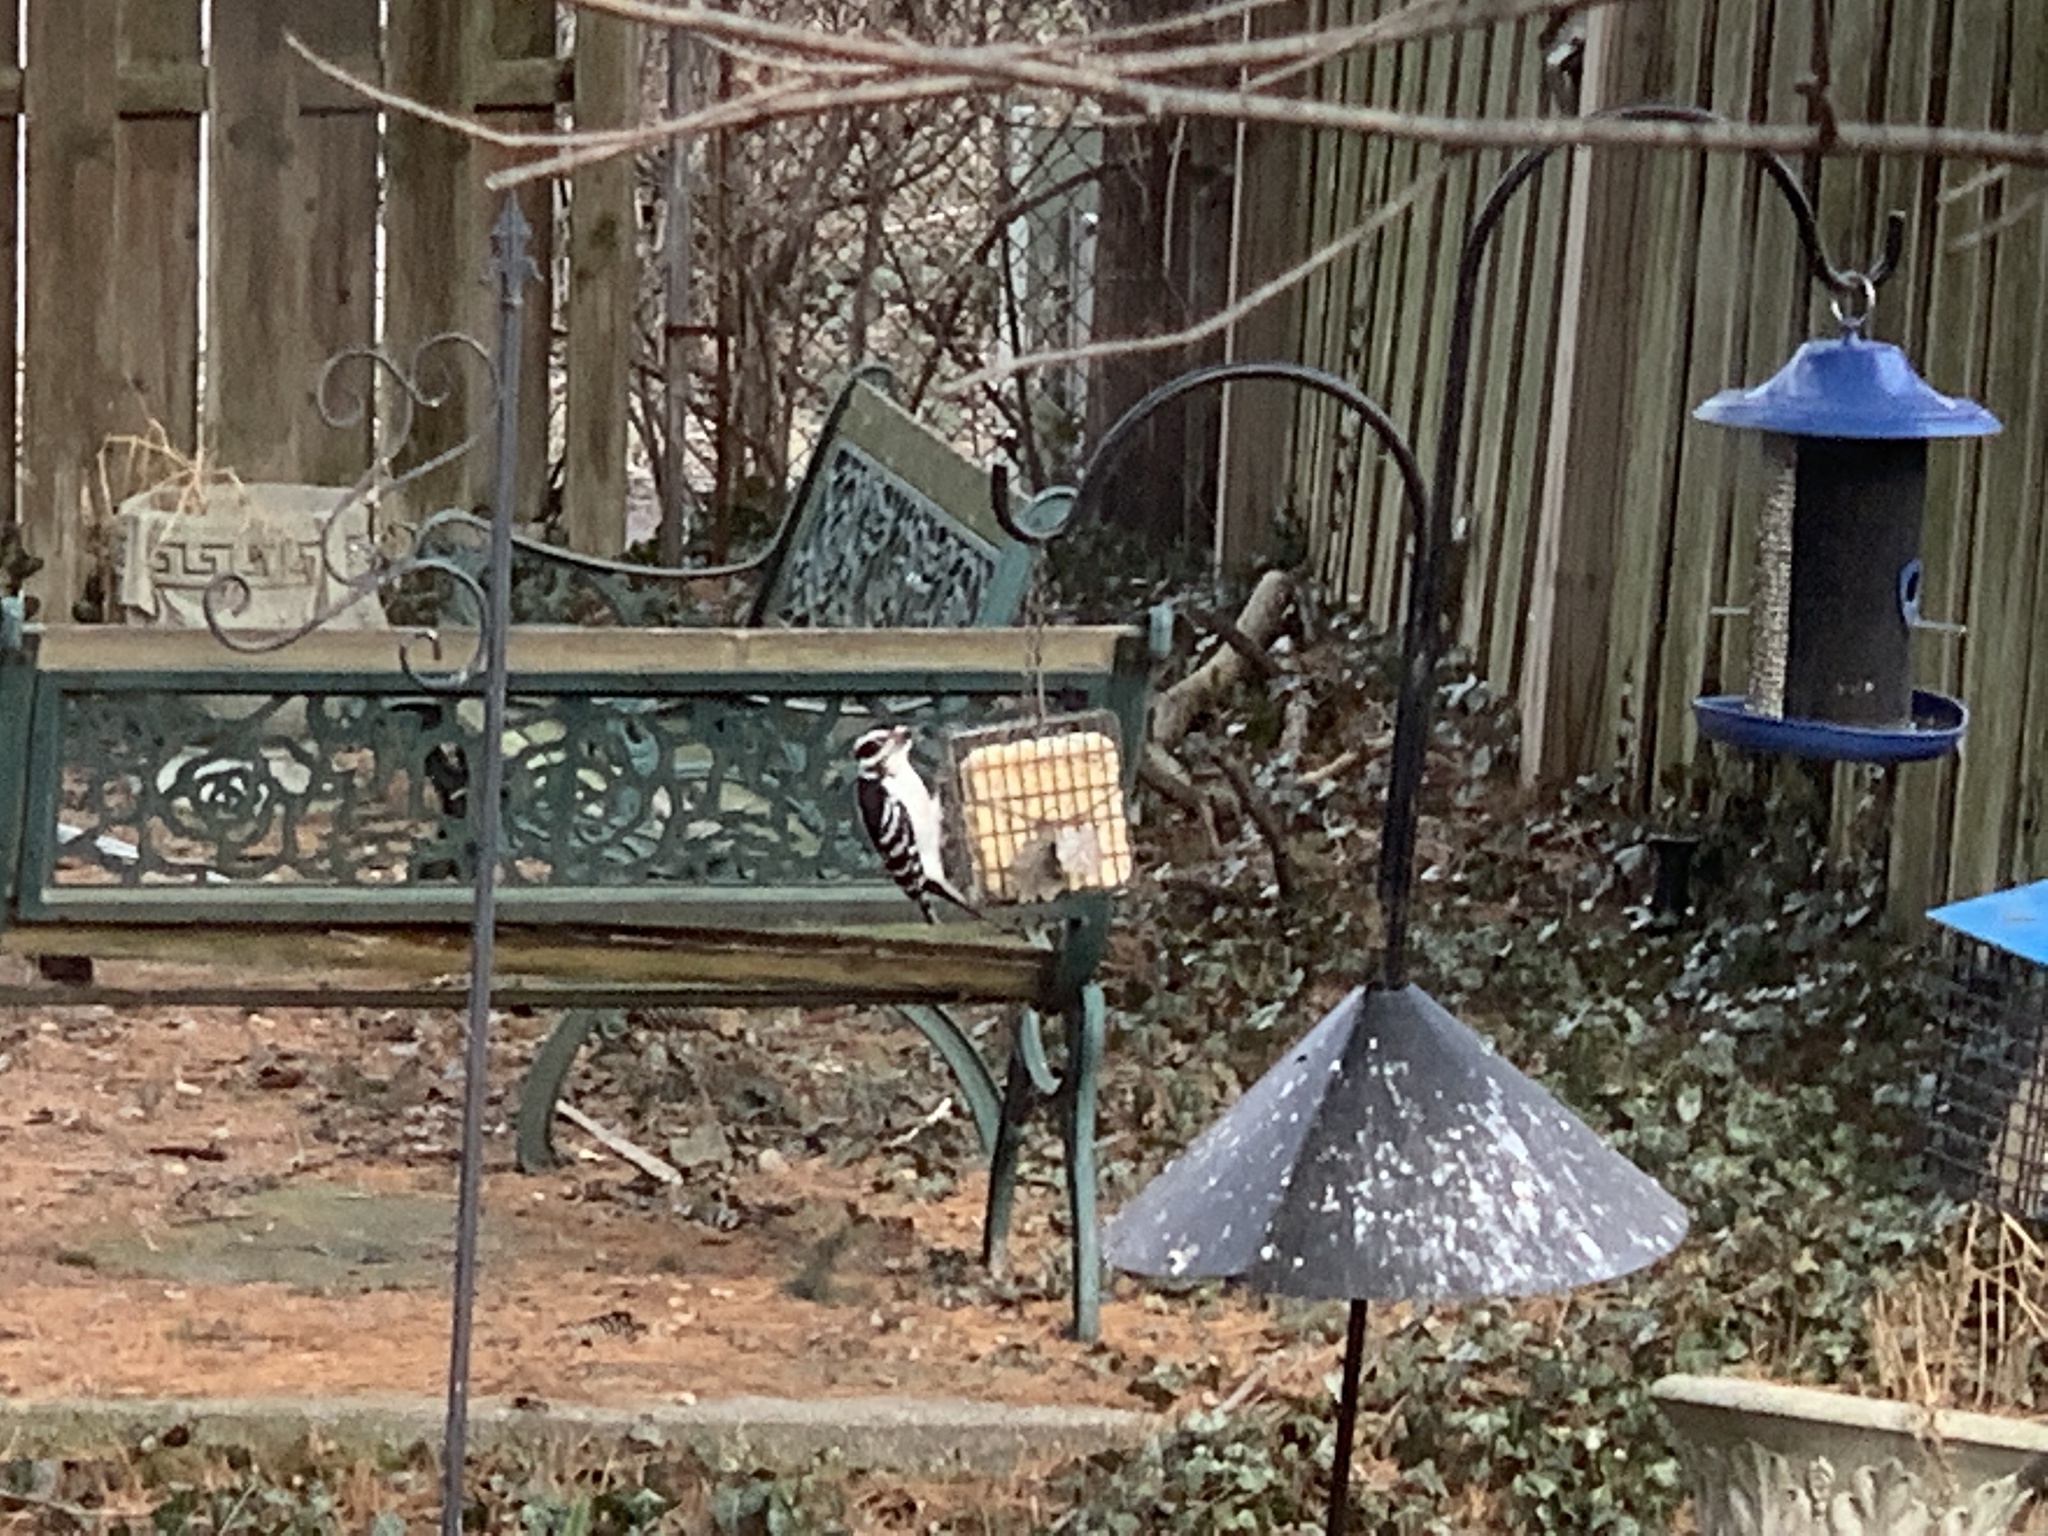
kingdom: Animalia
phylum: Chordata
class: Aves
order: Piciformes
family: Picidae
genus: Leuconotopicus
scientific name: Leuconotopicus villosus
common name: Hairy woodpecker
